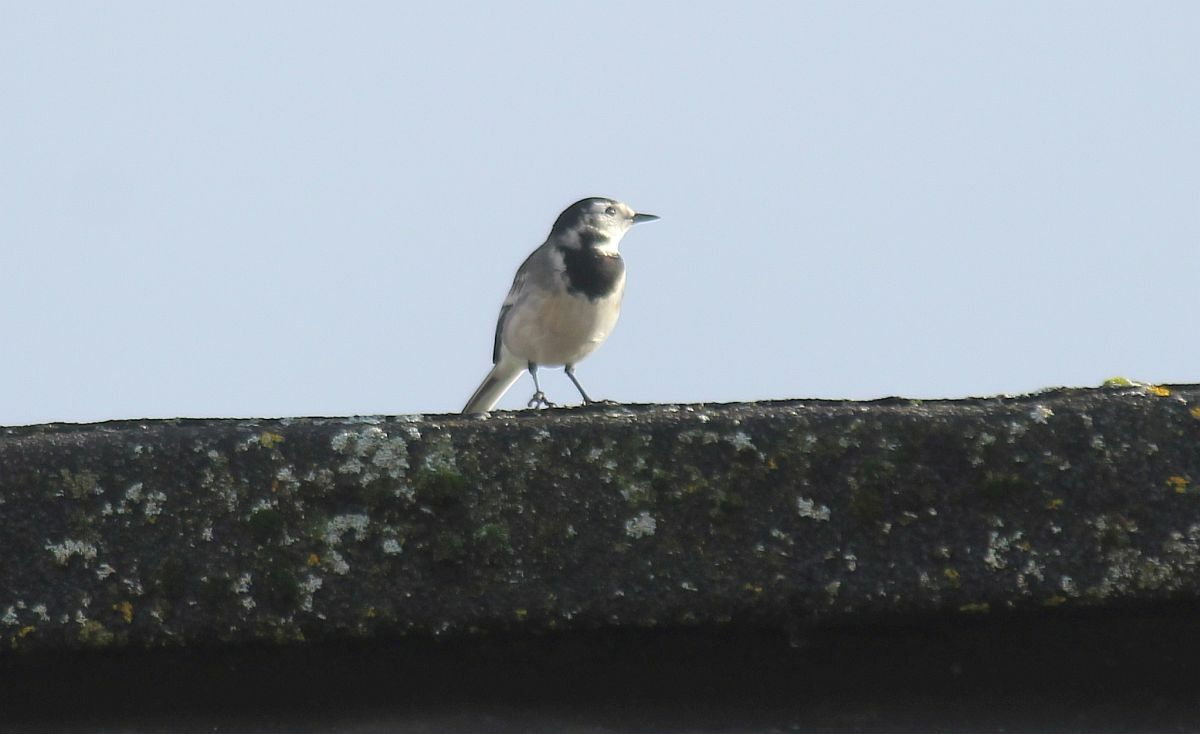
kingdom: Animalia
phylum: Chordata
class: Aves
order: Passeriformes
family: Motacillidae
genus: Motacilla
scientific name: Motacilla alba
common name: White wagtail
